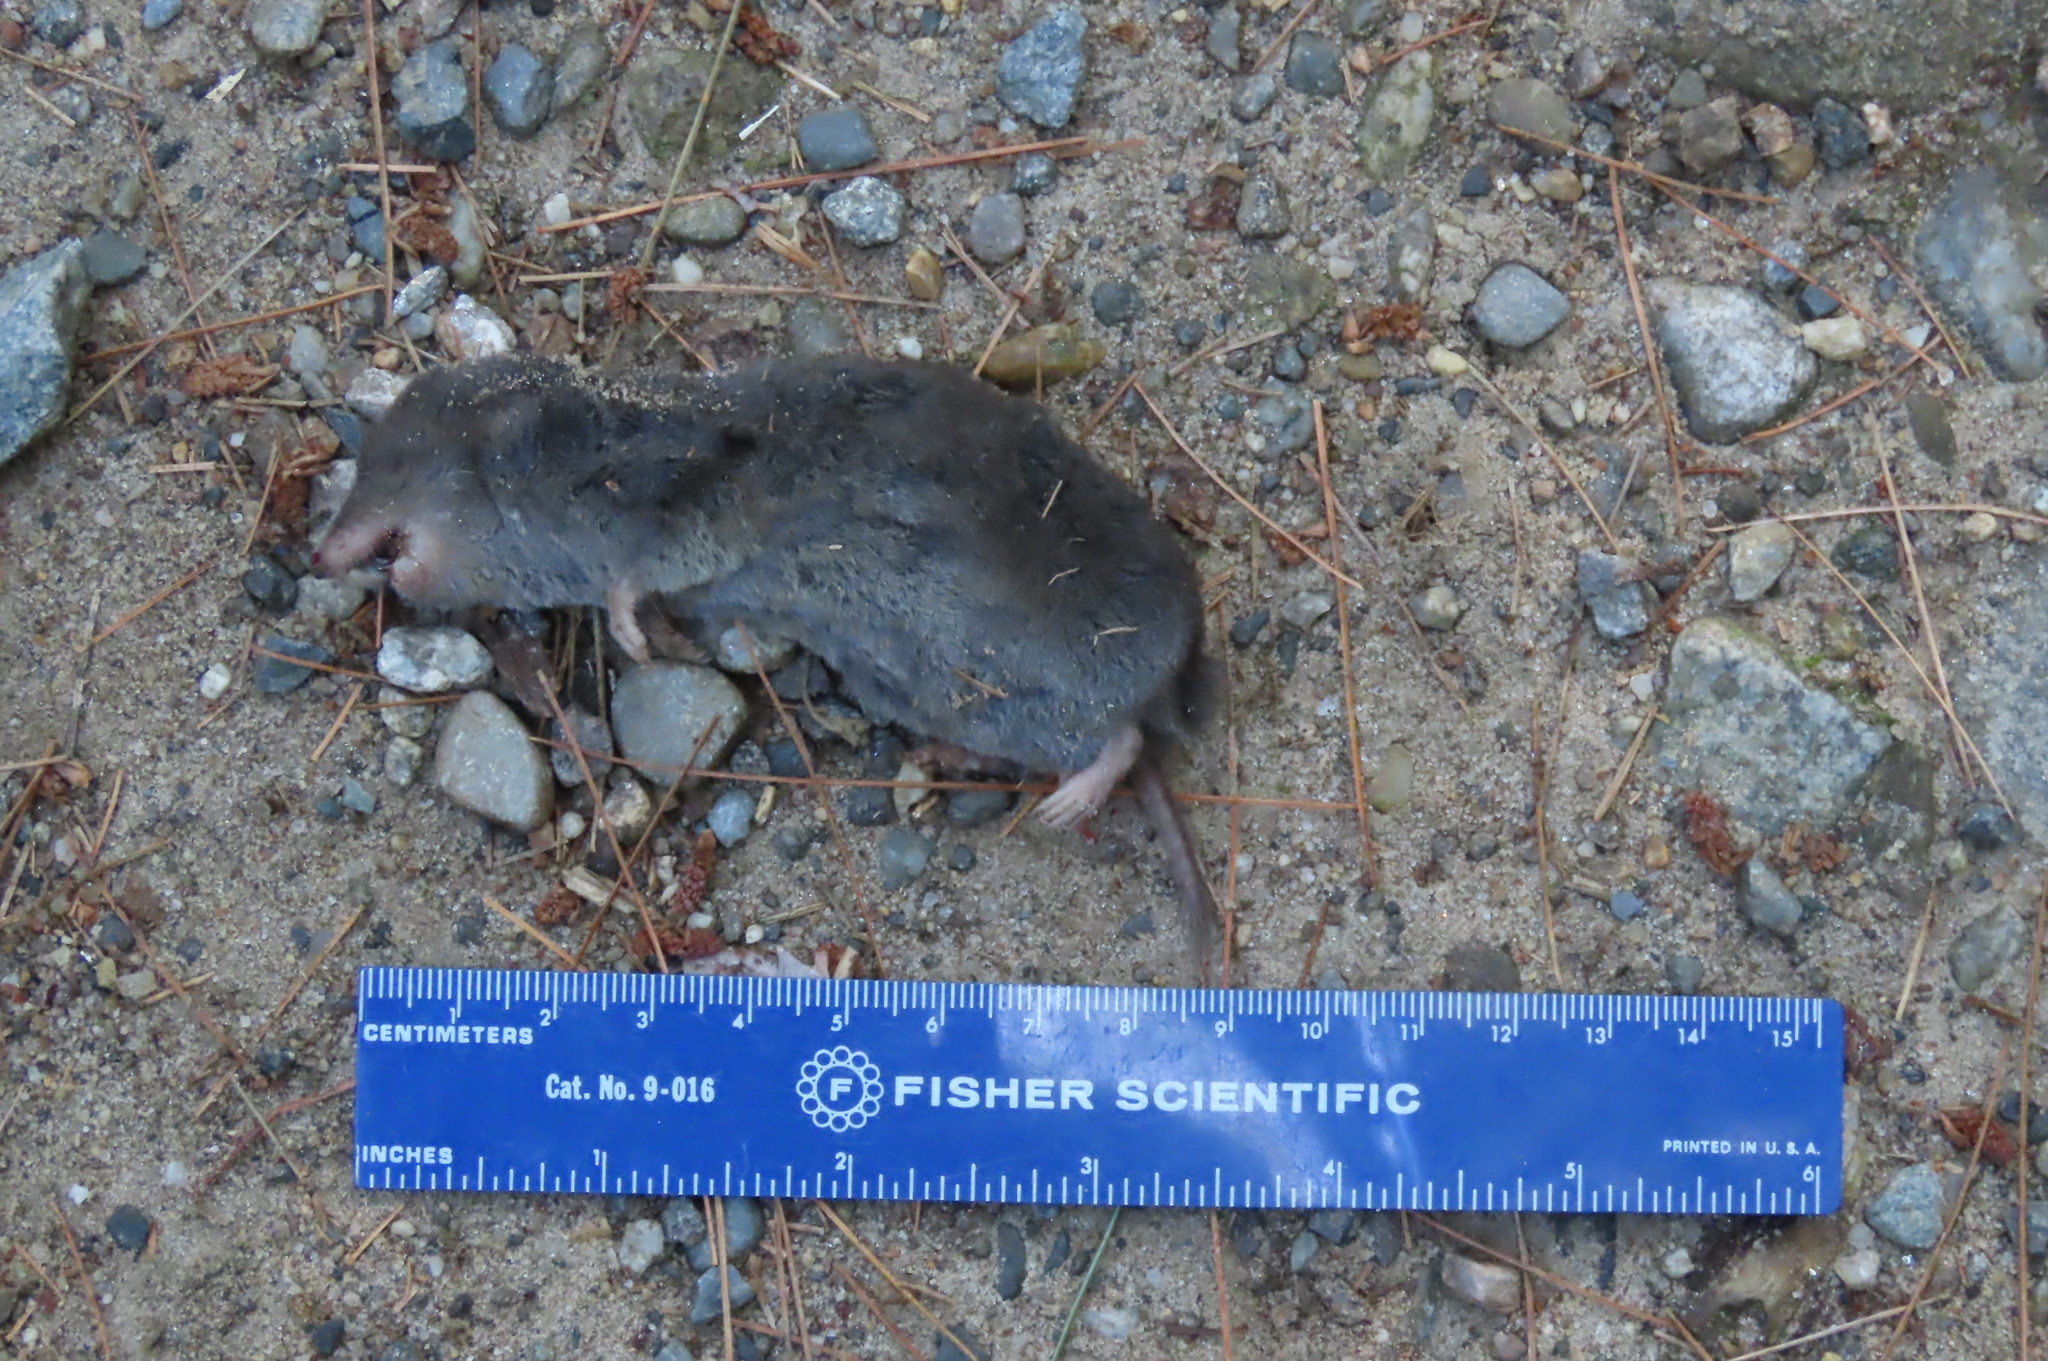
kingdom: Animalia
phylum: Chordata
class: Mammalia
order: Soricomorpha
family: Soricidae
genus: Blarina
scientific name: Blarina brevicauda
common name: Northern short-tailed shrew
